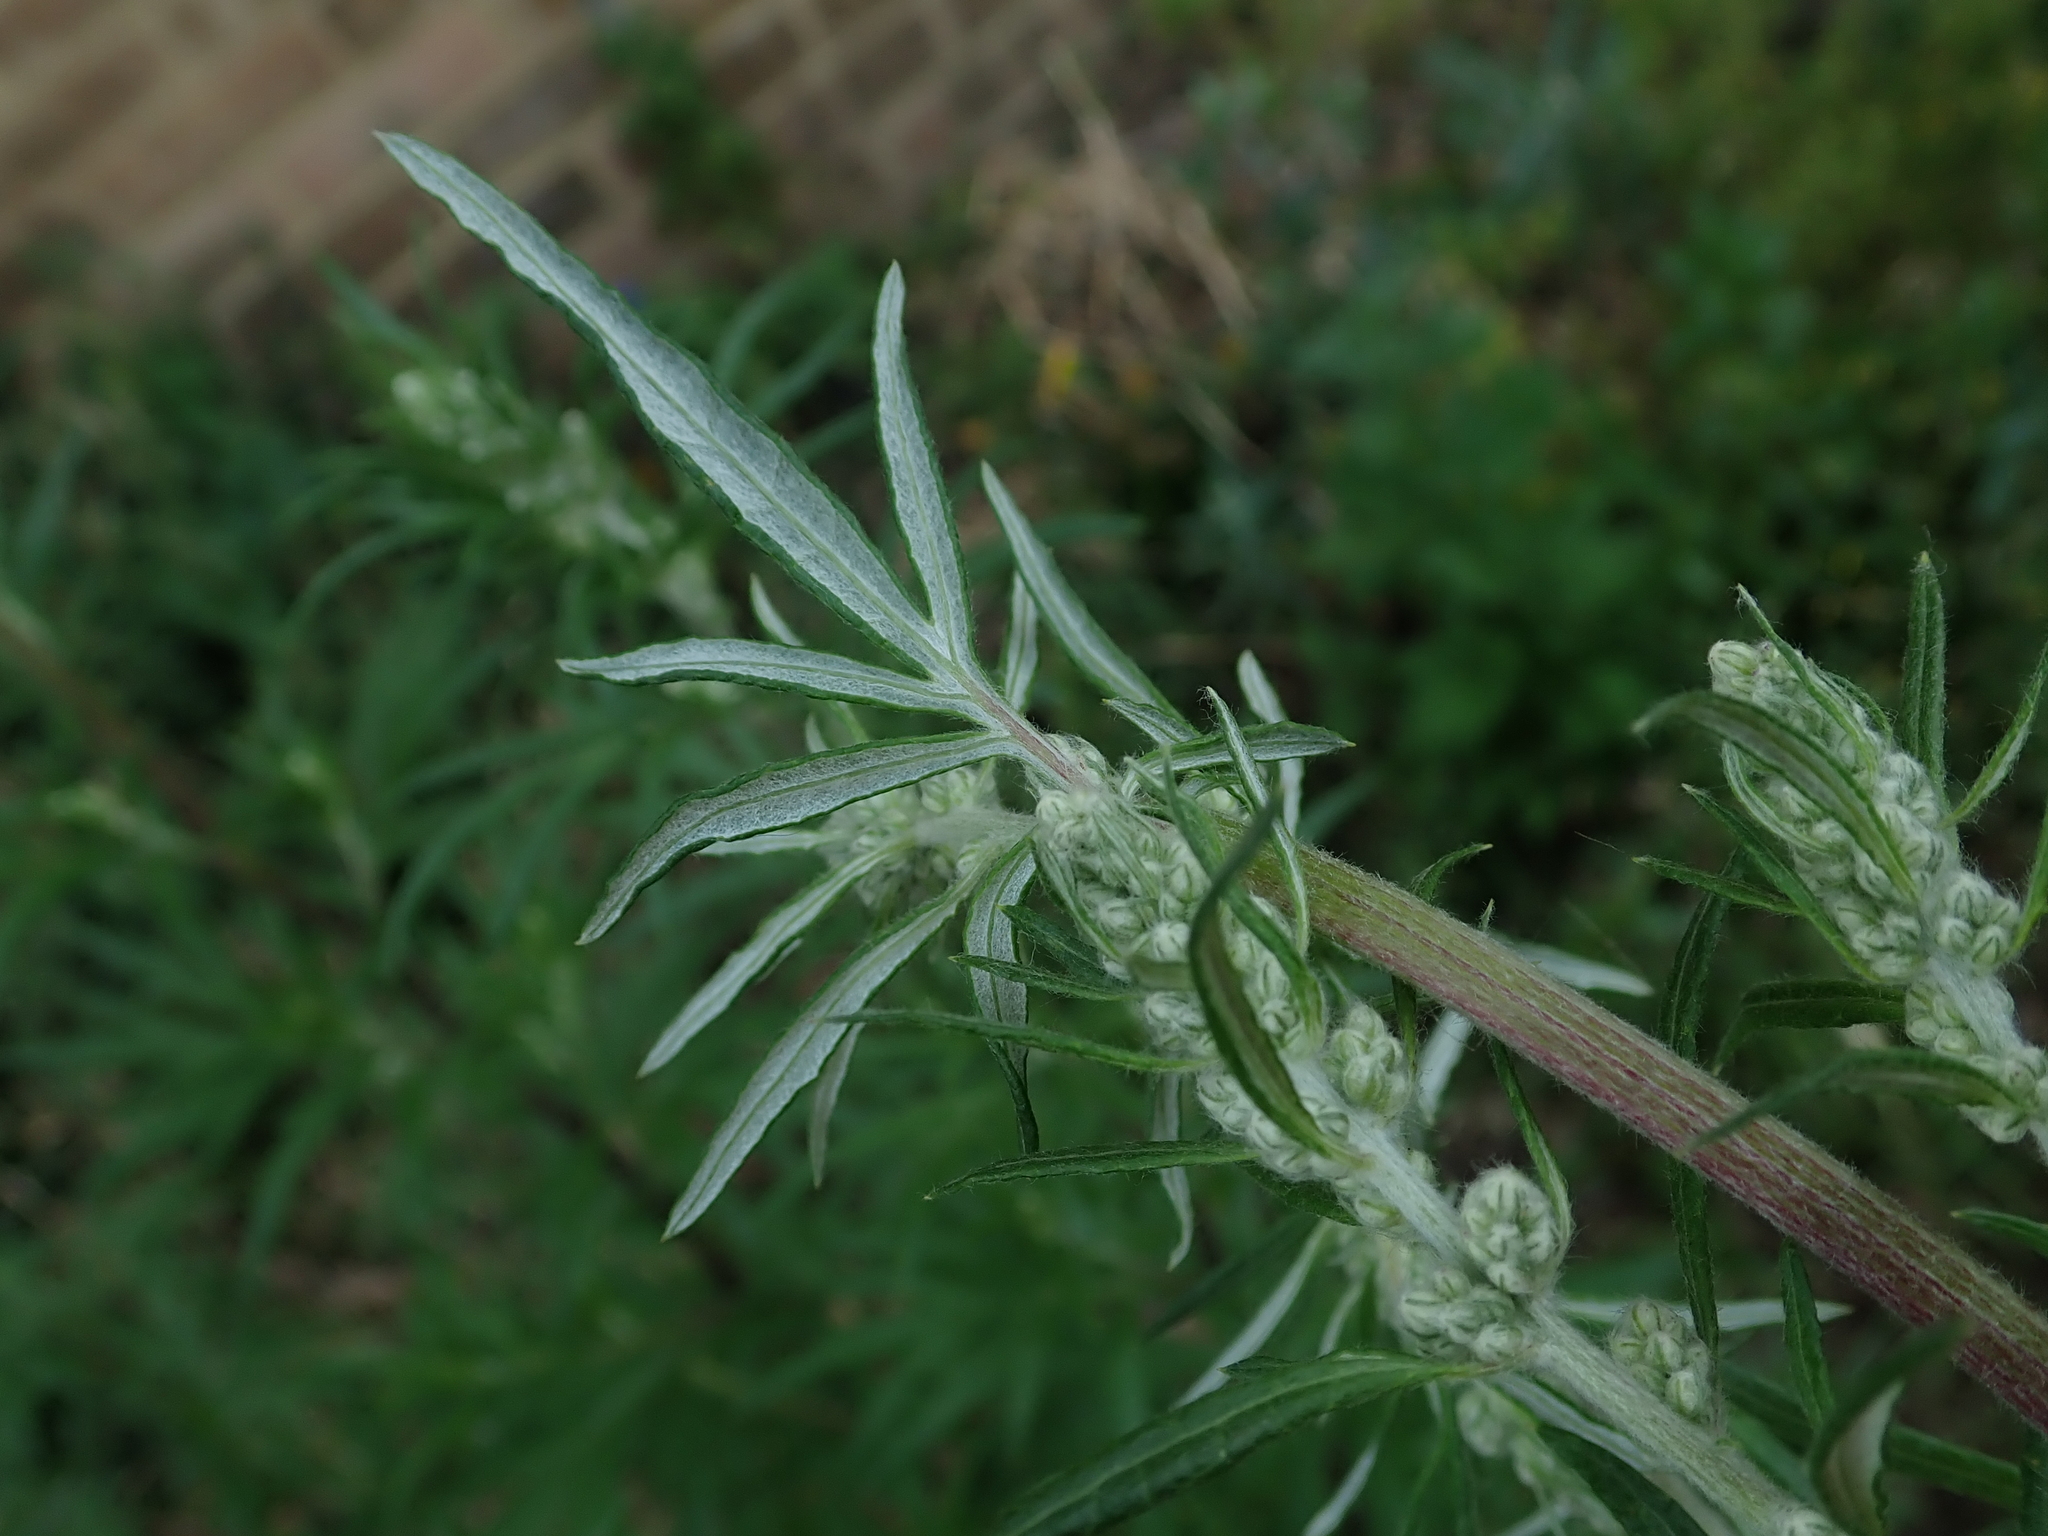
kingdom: Plantae
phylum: Tracheophyta
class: Magnoliopsida
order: Asterales
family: Asteraceae
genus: Artemisia
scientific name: Artemisia vulgaris
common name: Mugwort
